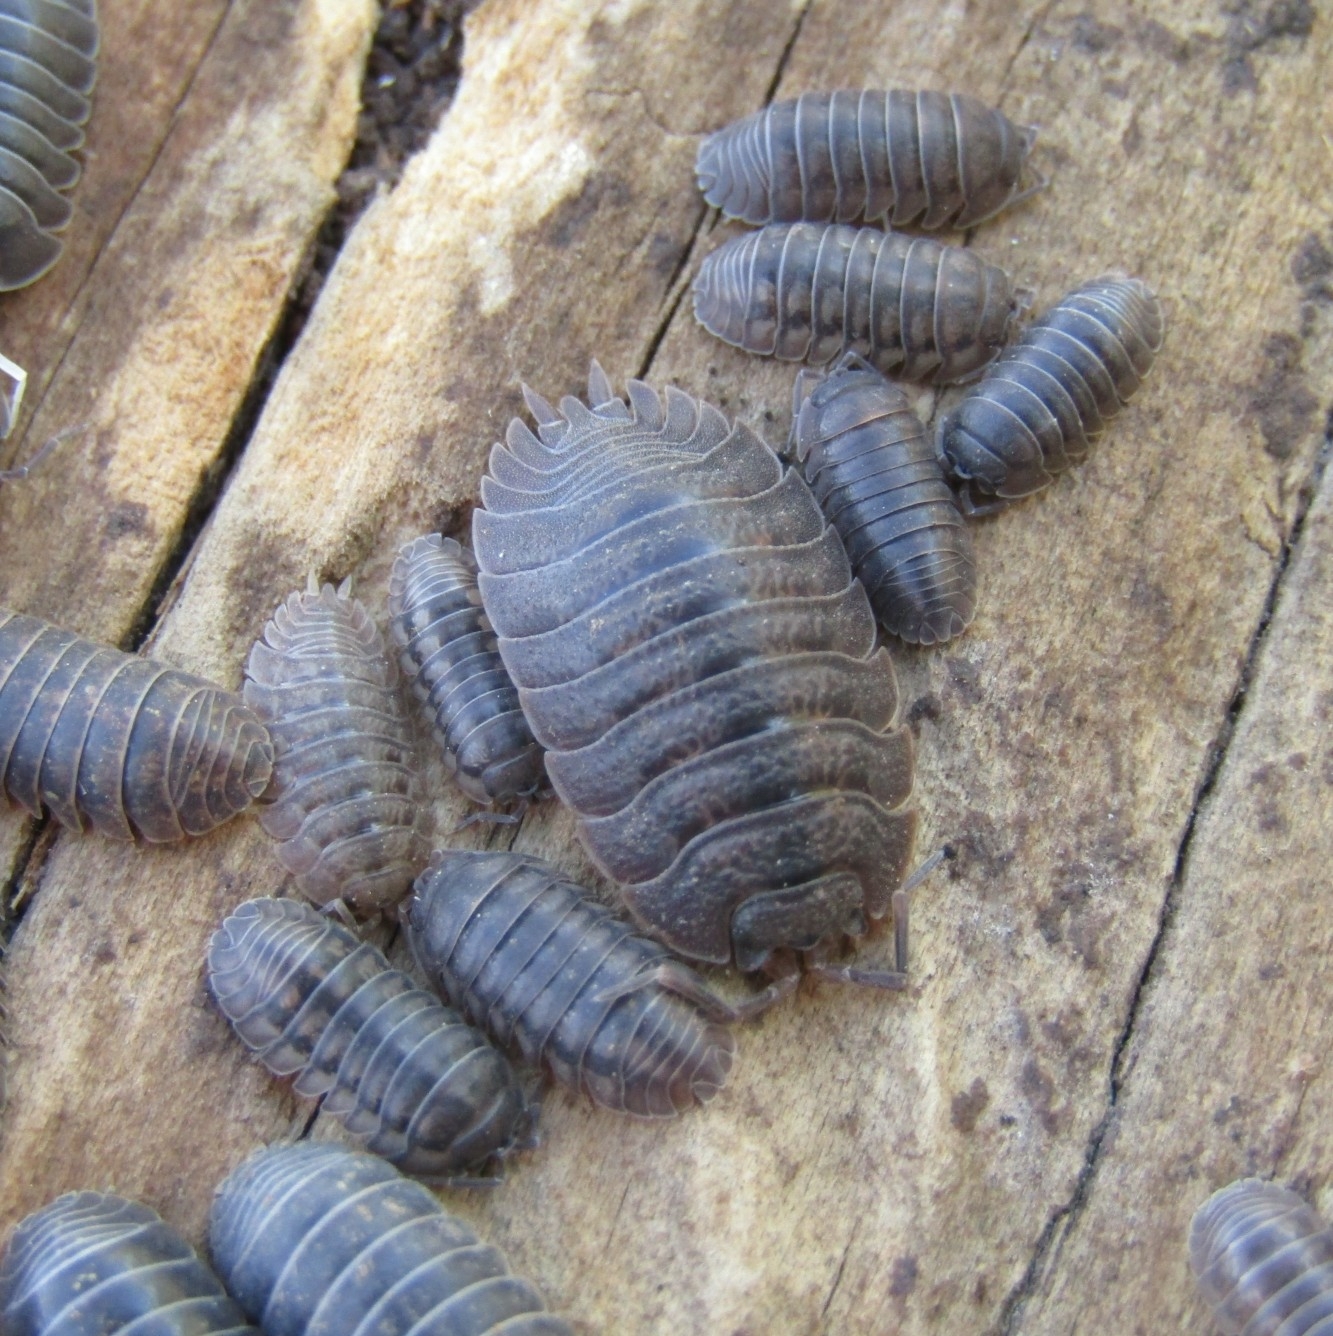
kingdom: Animalia
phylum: Arthropoda
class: Malacostraca
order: Isopoda
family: Porcellionidae
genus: Porcellio
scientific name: Porcellio dilatatus
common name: Isopod
